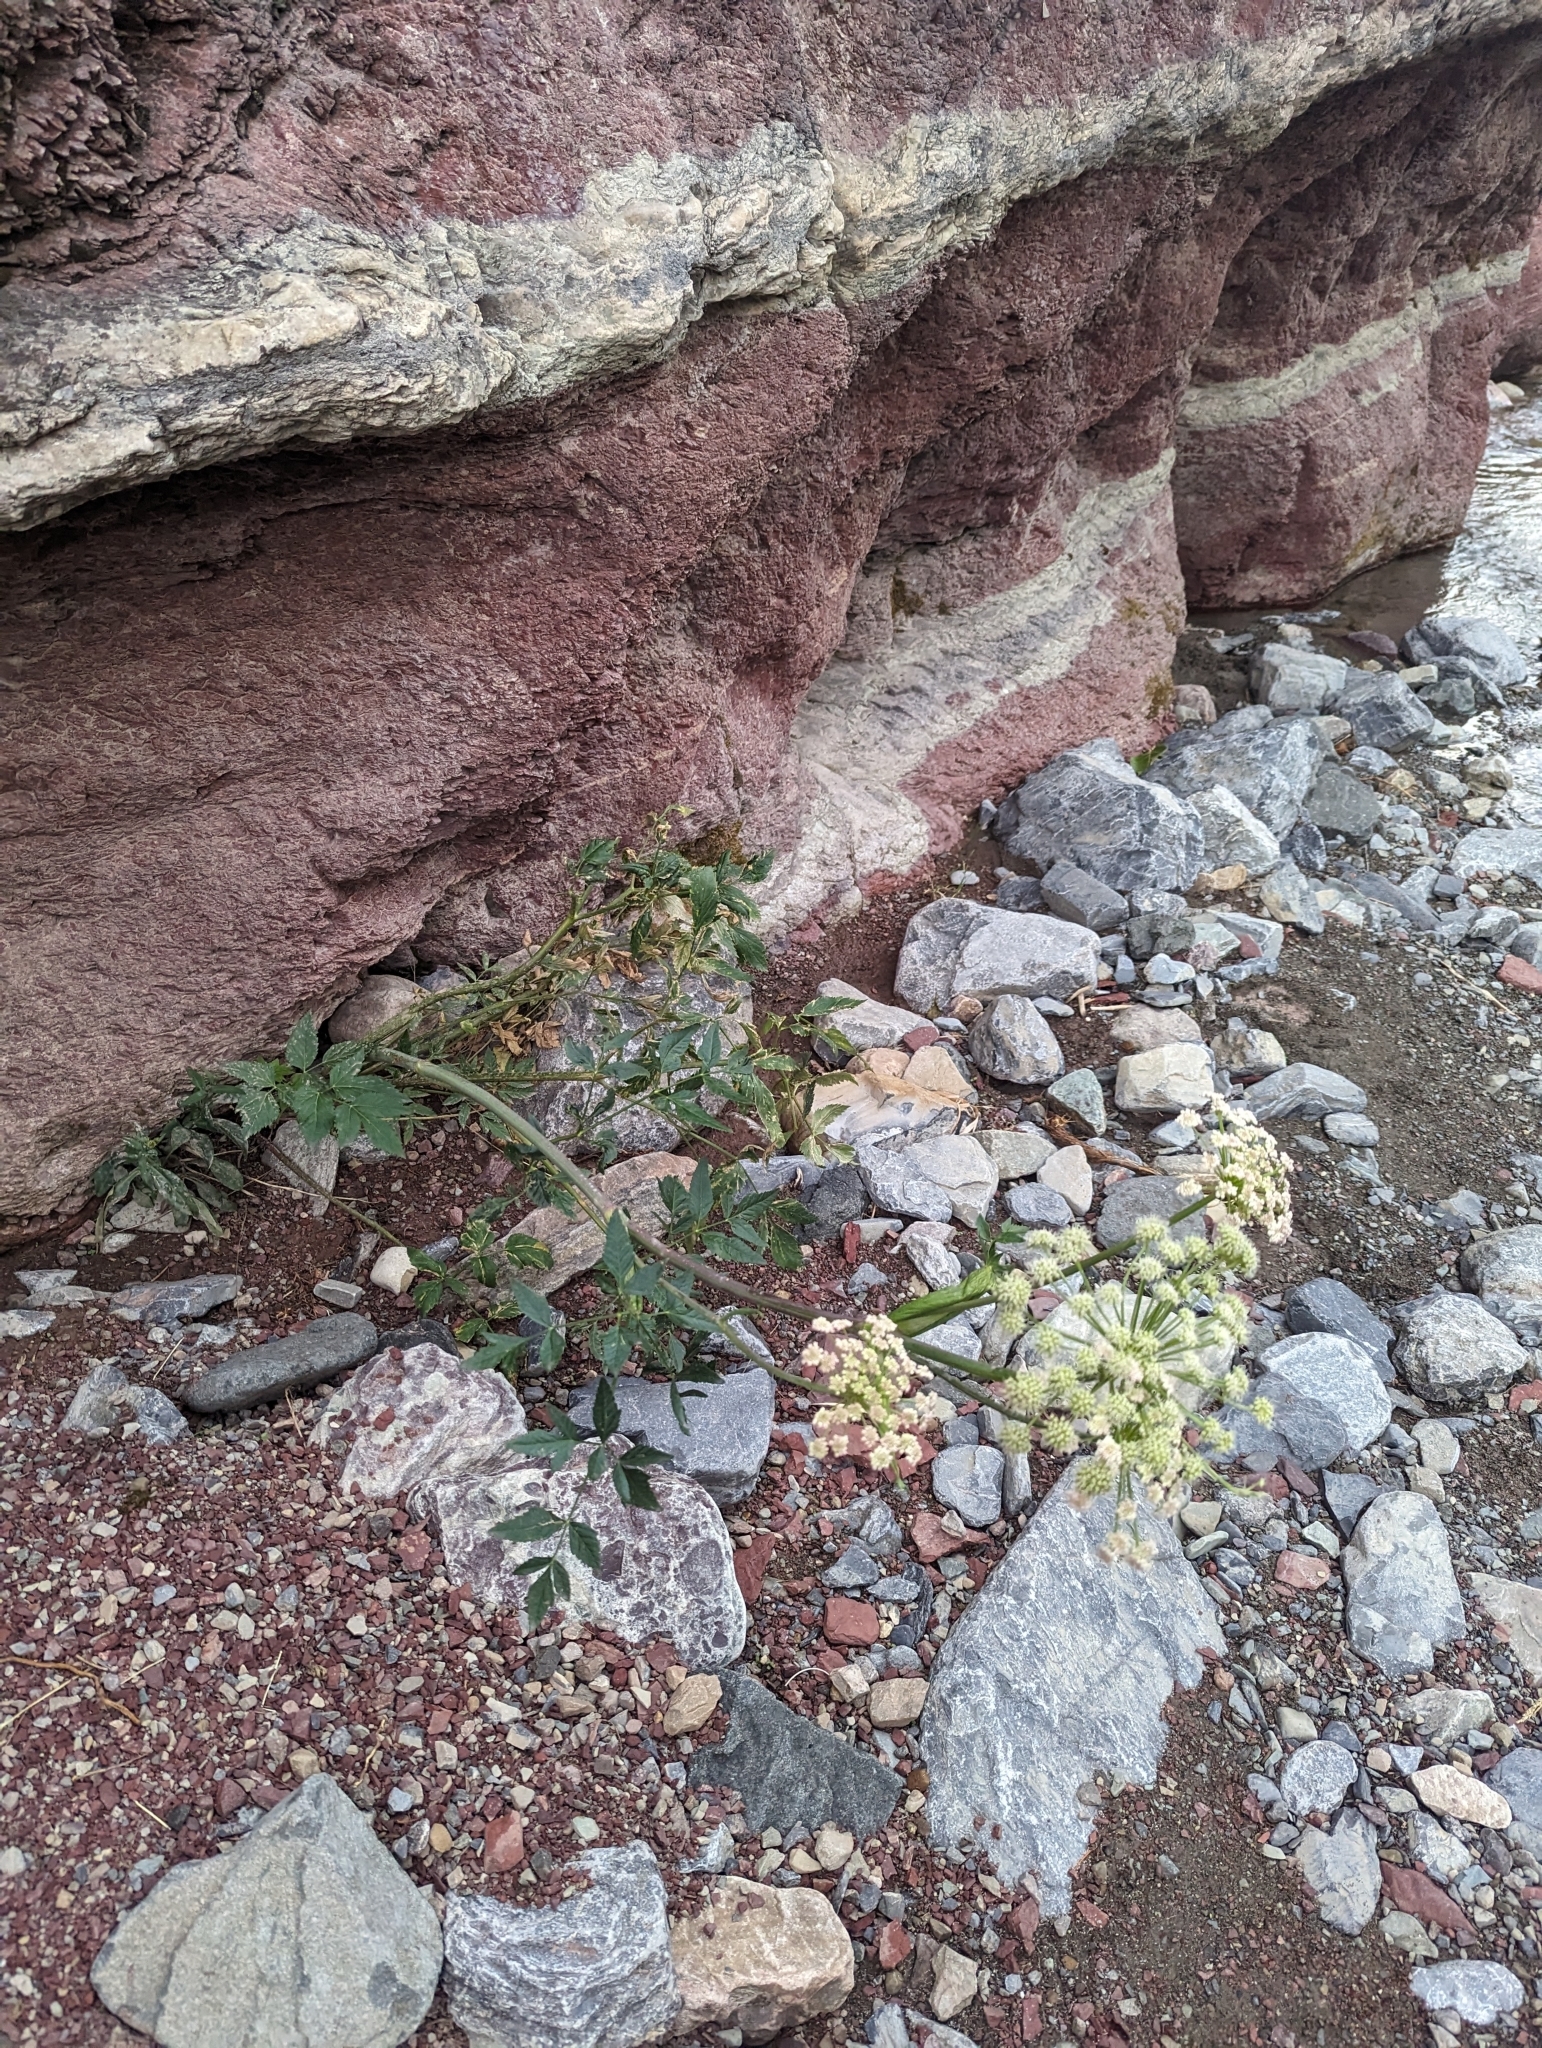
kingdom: Plantae
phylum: Tracheophyta
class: Magnoliopsida
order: Apiales
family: Apiaceae
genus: Angelica
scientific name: Angelica arguta
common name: Lyall's angelica
